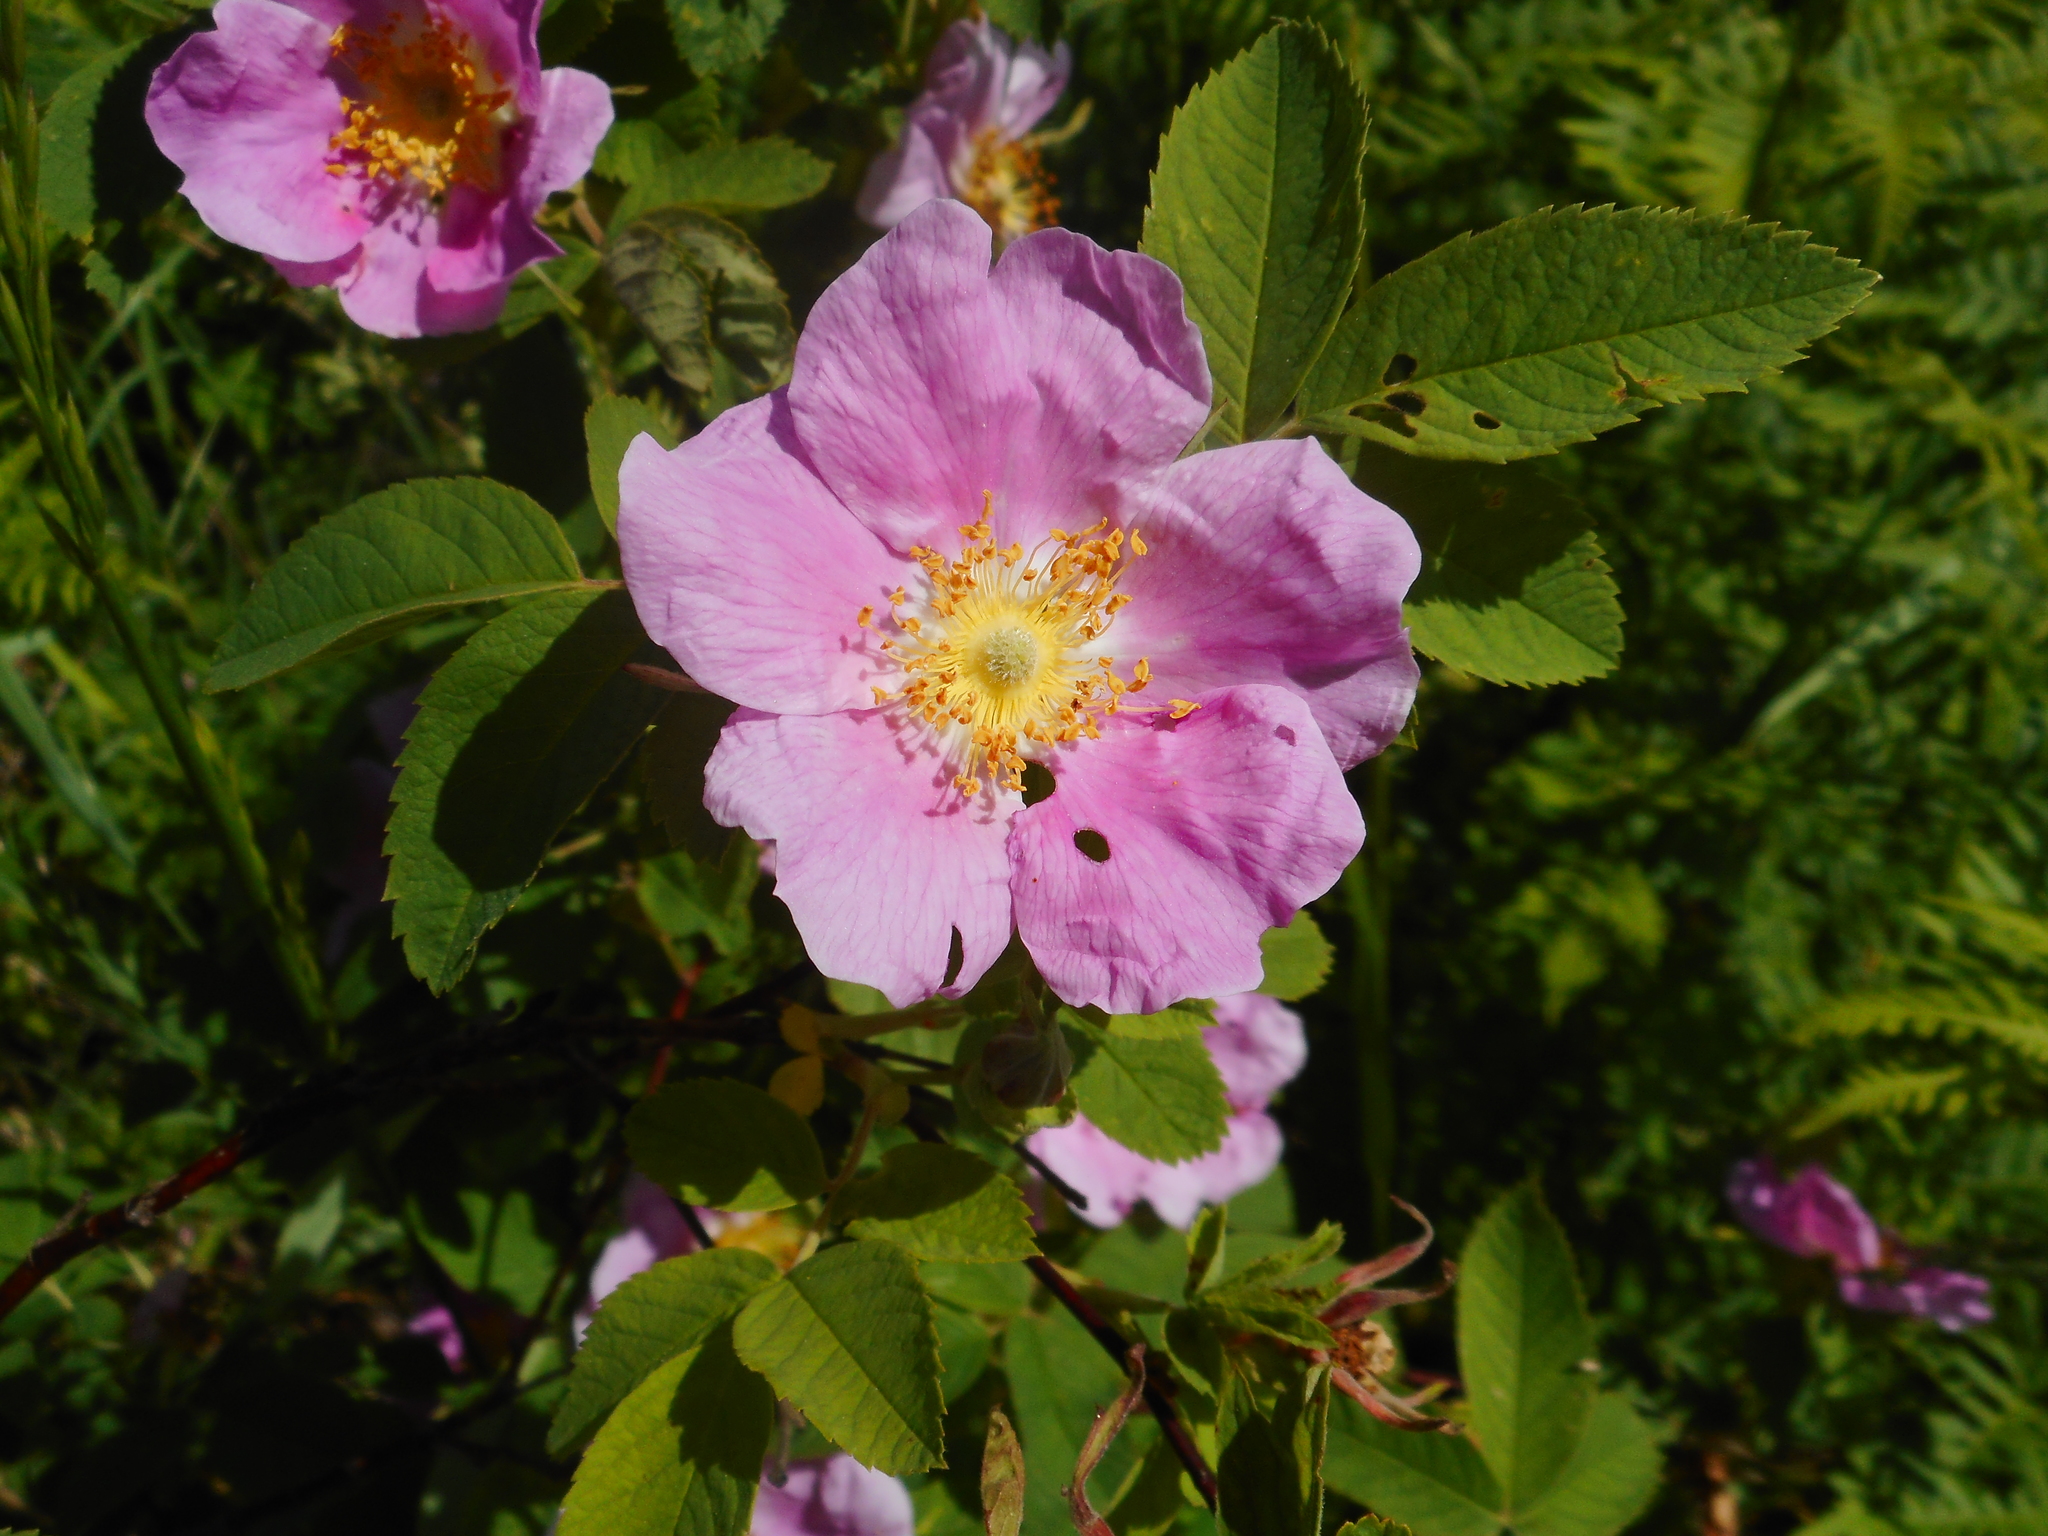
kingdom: Plantae
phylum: Tracheophyta
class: Magnoliopsida
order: Rosales
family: Rosaceae
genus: Rosa
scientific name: Rosa majalis
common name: Cinnamon rose
